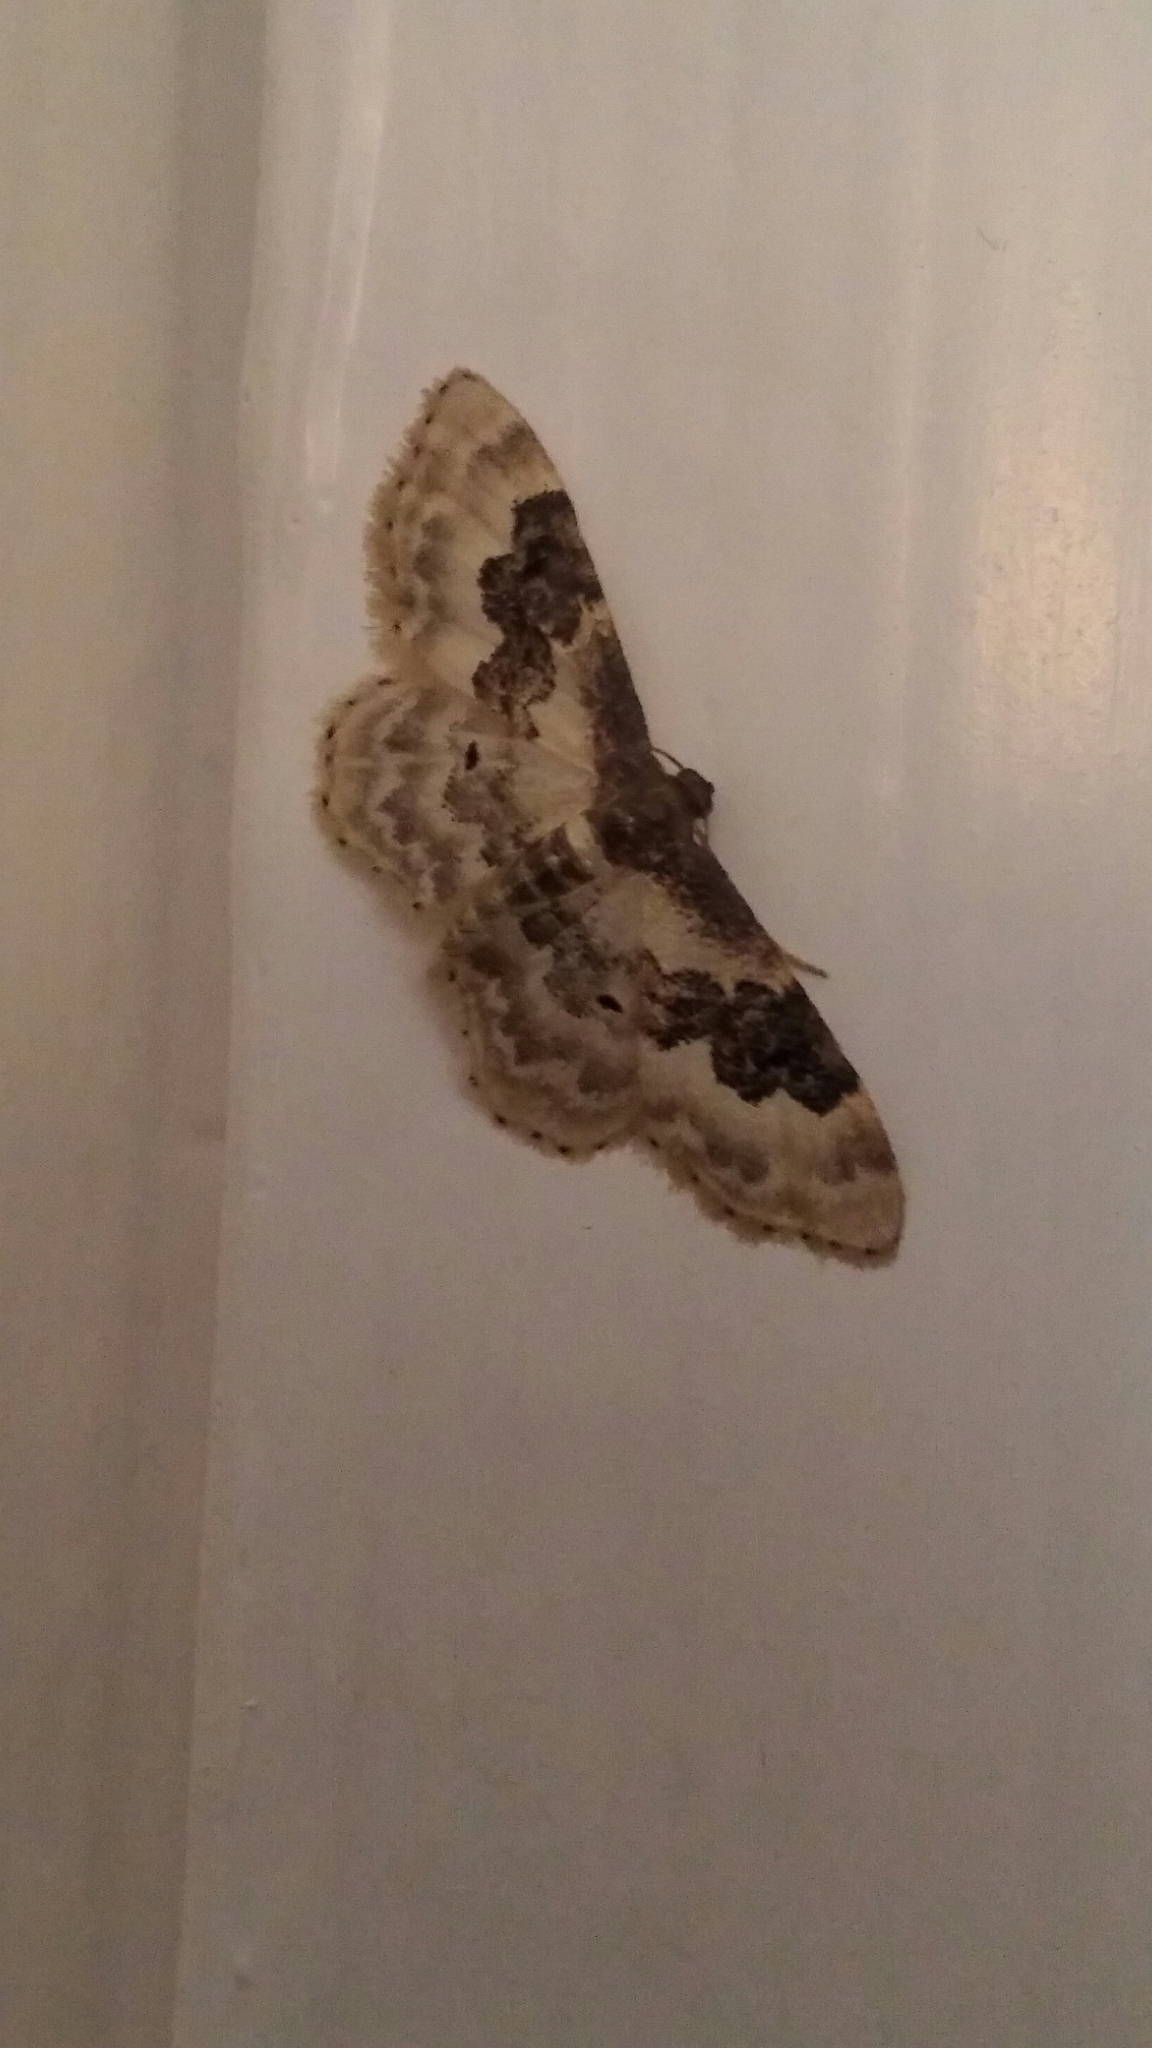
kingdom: Animalia
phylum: Arthropoda
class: Insecta
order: Lepidoptera
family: Geometridae
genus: Idaea
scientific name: Idaea rusticata
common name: Least carpet
